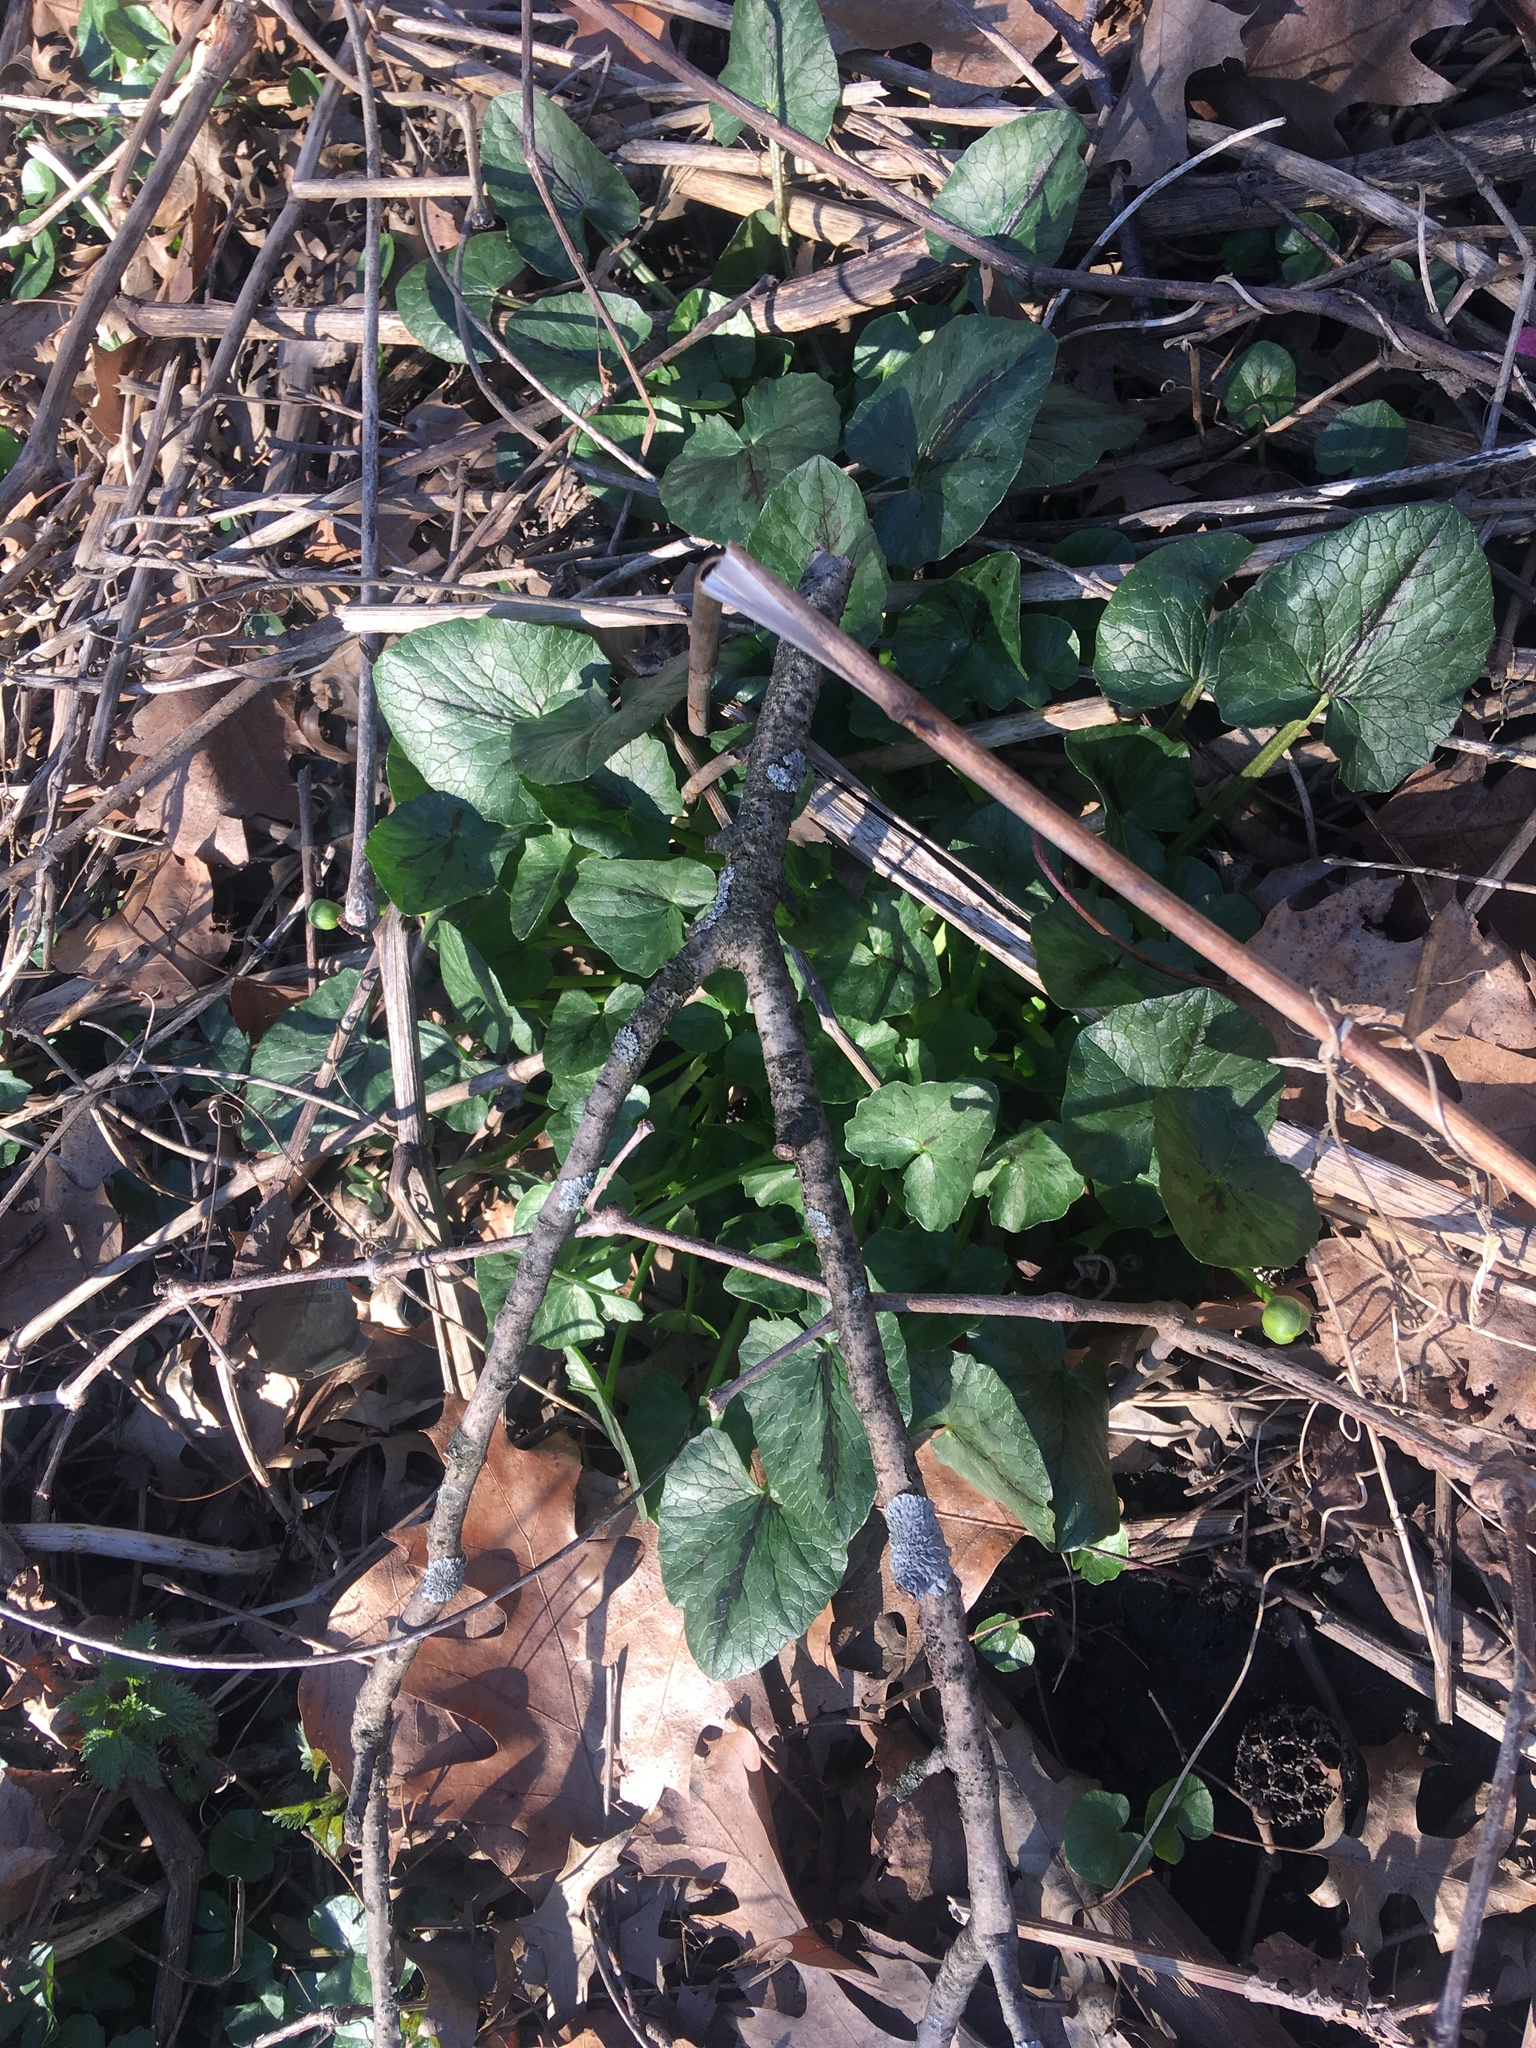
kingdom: Plantae
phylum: Tracheophyta
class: Magnoliopsida
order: Ranunculales
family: Ranunculaceae
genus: Ficaria
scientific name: Ficaria verna
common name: Lesser celandine
